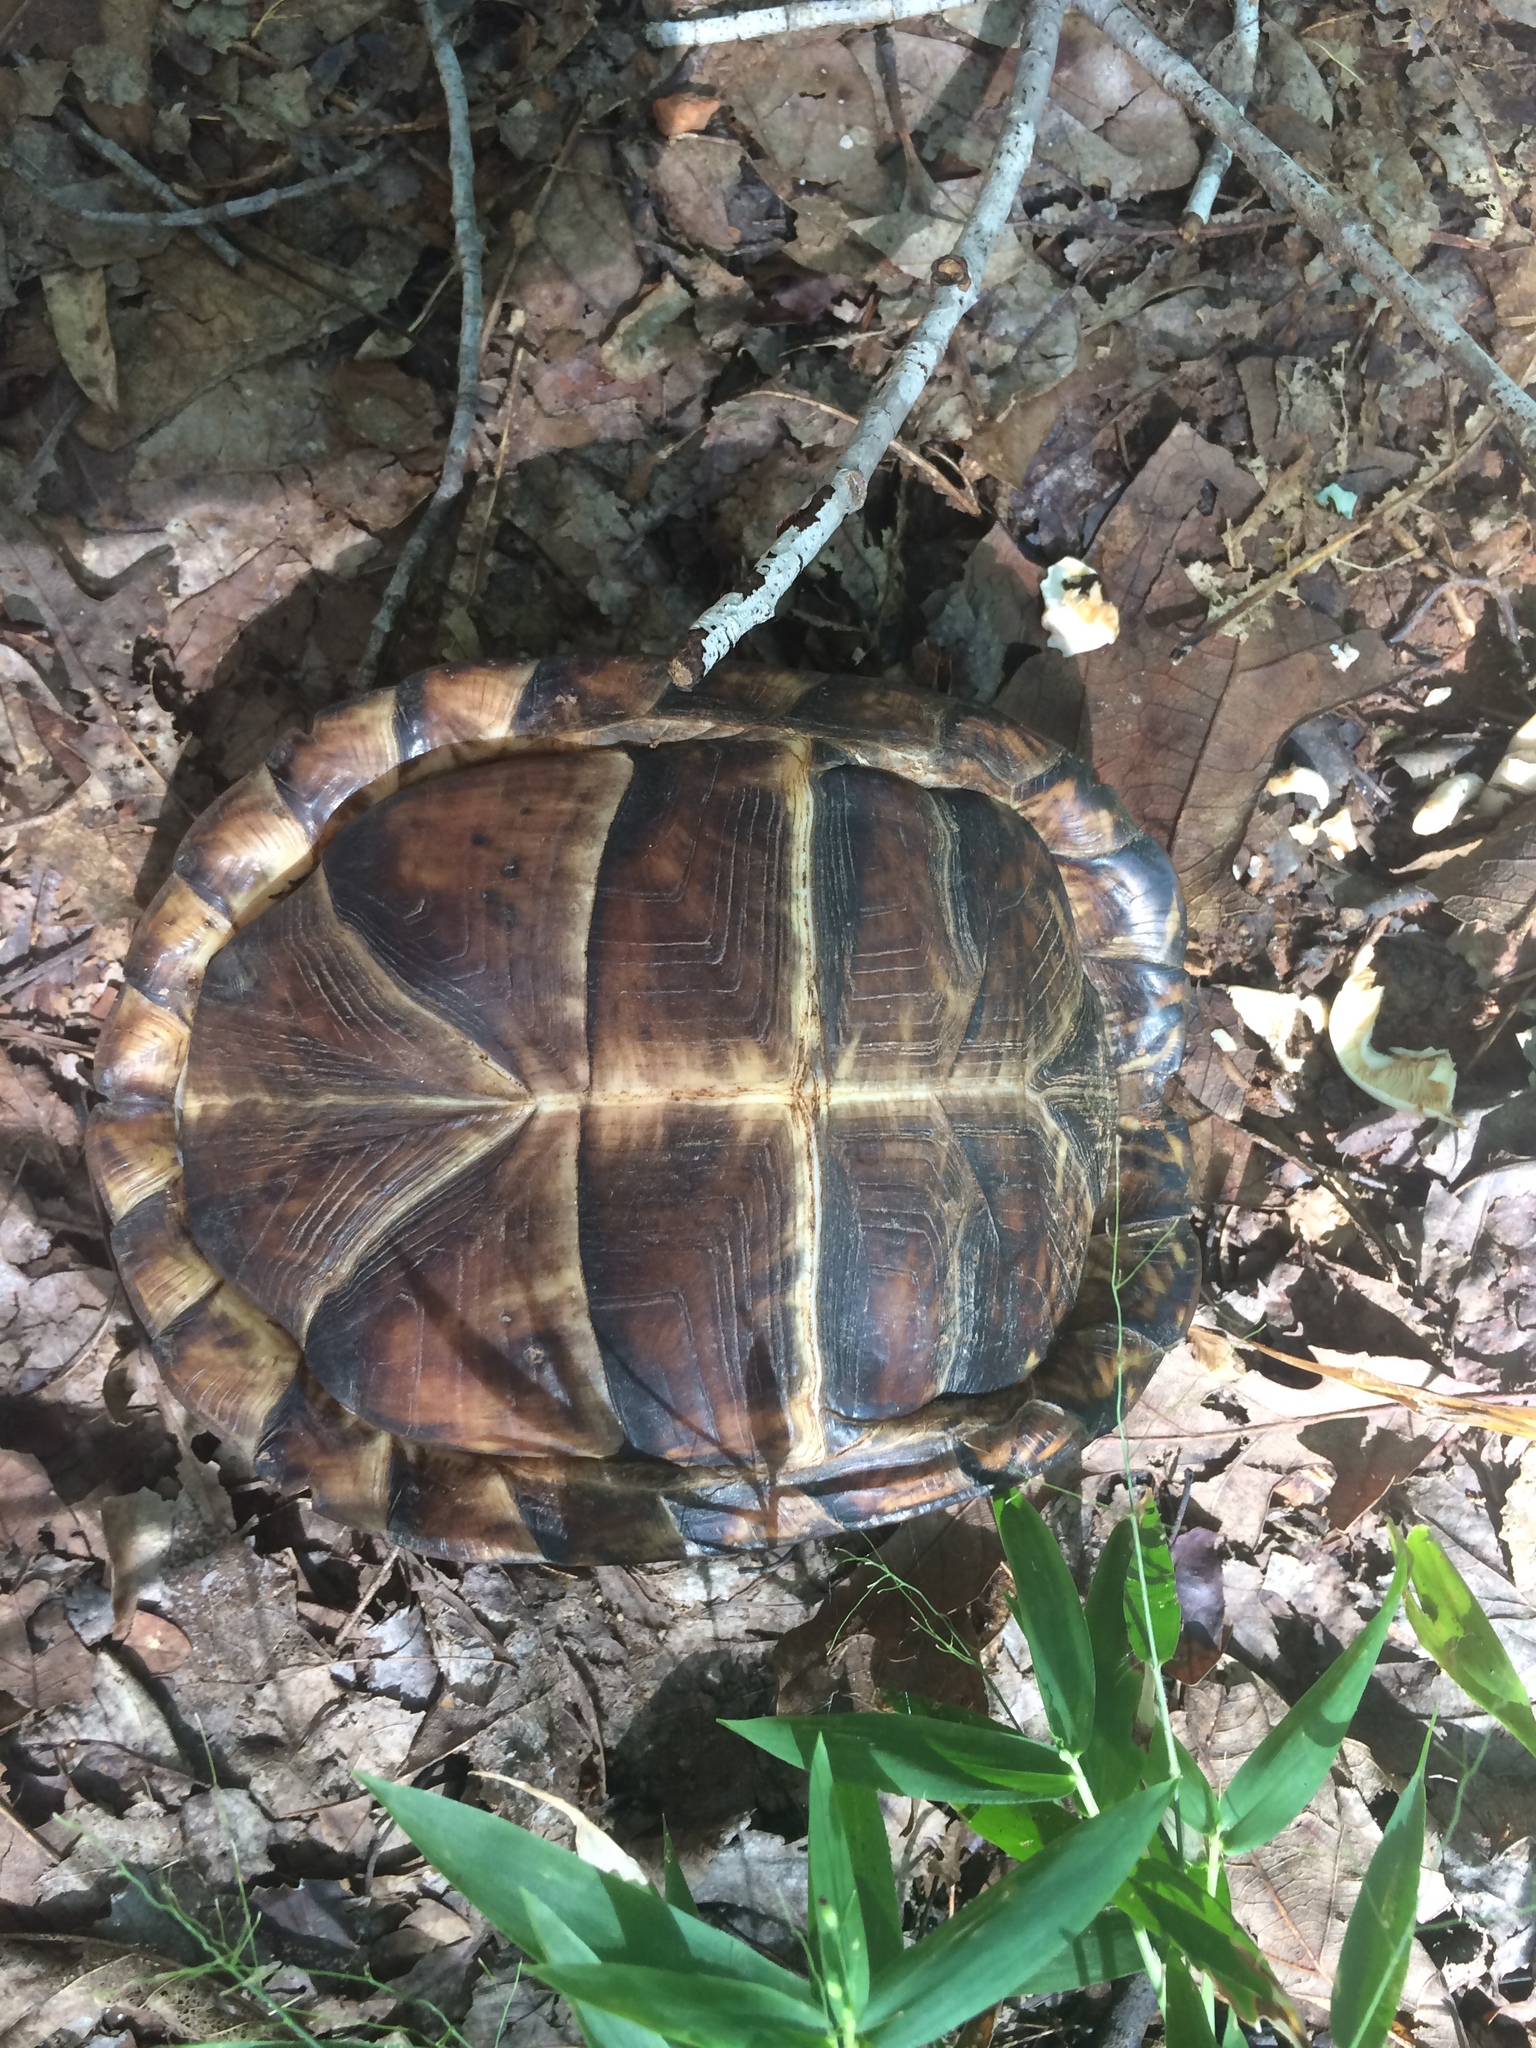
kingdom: Animalia
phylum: Chordata
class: Testudines
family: Emydidae
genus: Terrapene
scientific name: Terrapene carolina
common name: Common box turtle
